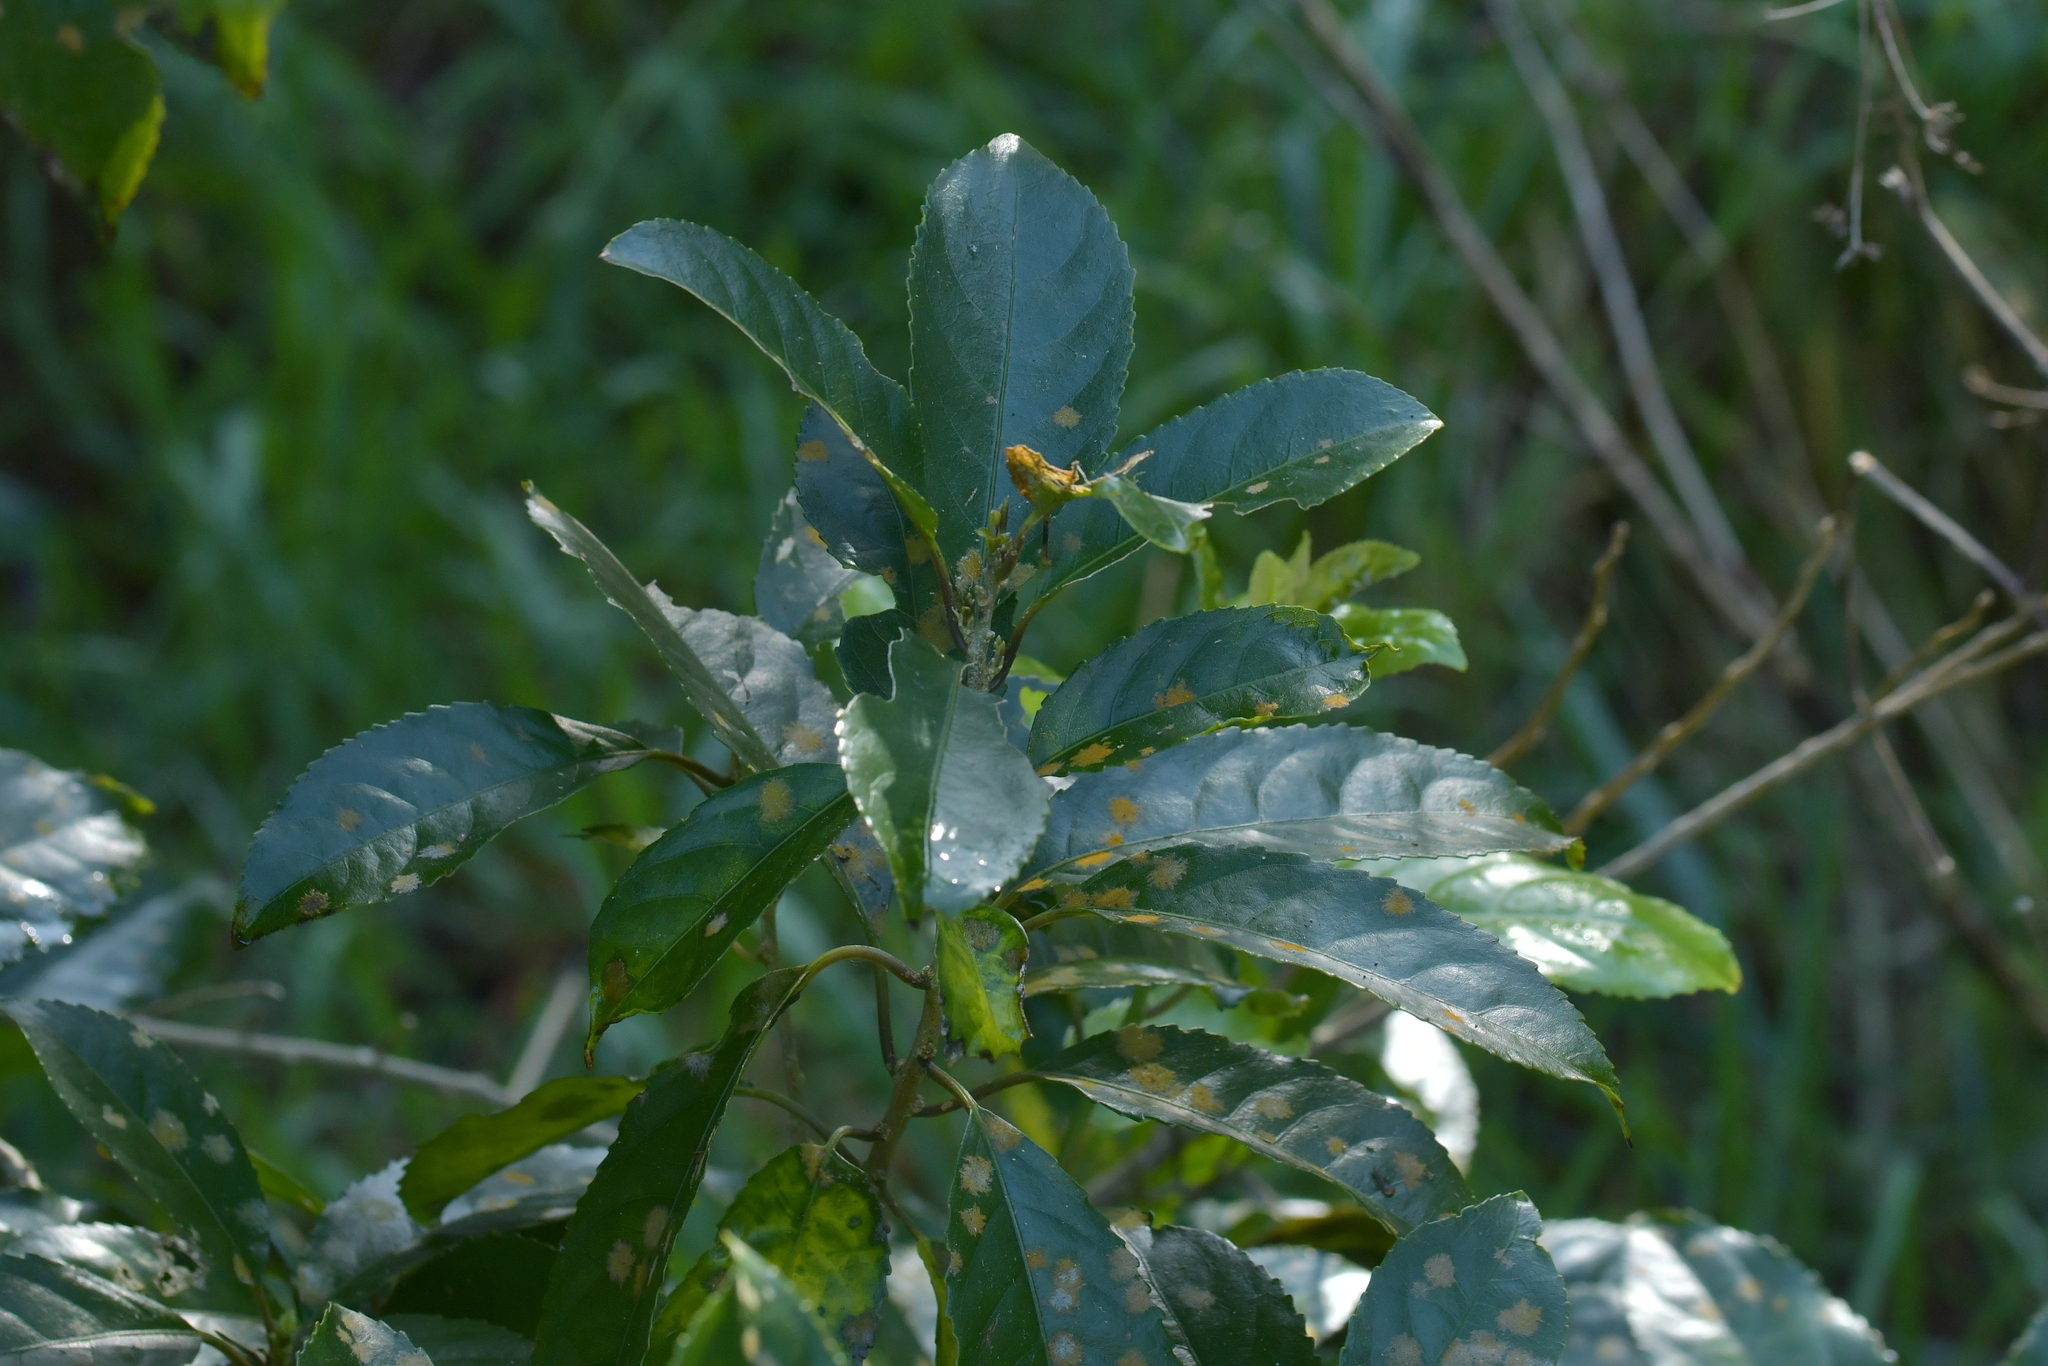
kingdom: Plantae
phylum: Chlorophyta
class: Ulvophyceae
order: Trentepohliales
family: Trentepohliaceae
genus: Cephaleuros
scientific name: Cephaleuros
